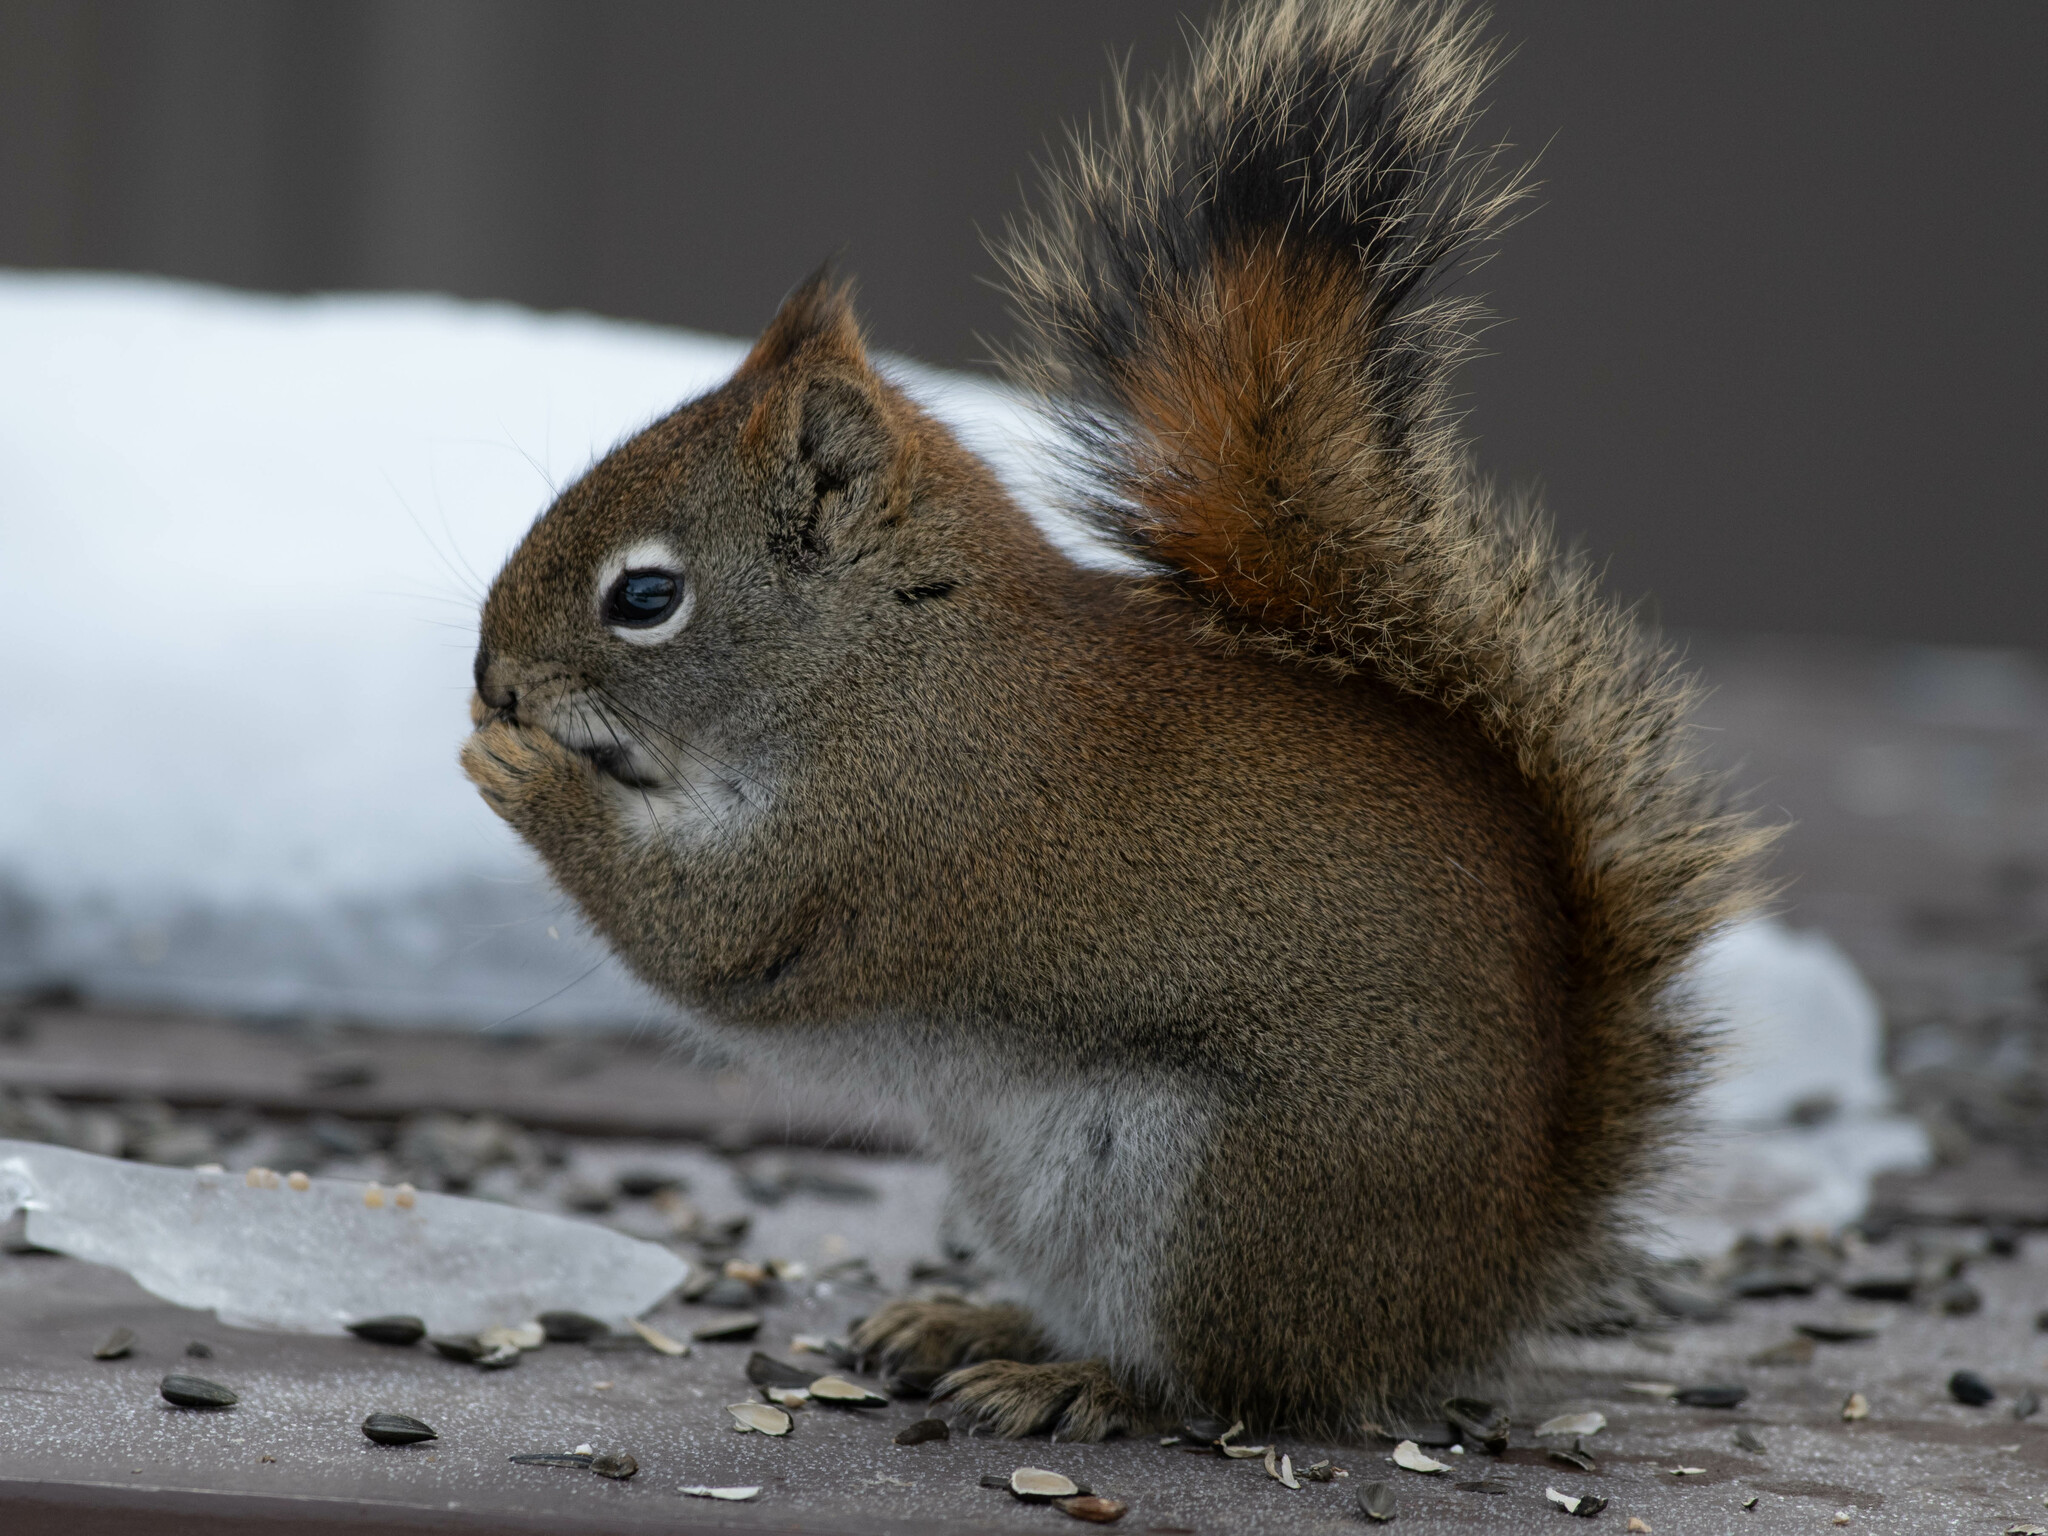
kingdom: Animalia
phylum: Chordata
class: Mammalia
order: Rodentia
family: Sciuridae
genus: Tamiasciurus
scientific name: Tamiasciurus hudsonicus
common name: Red squirrel
